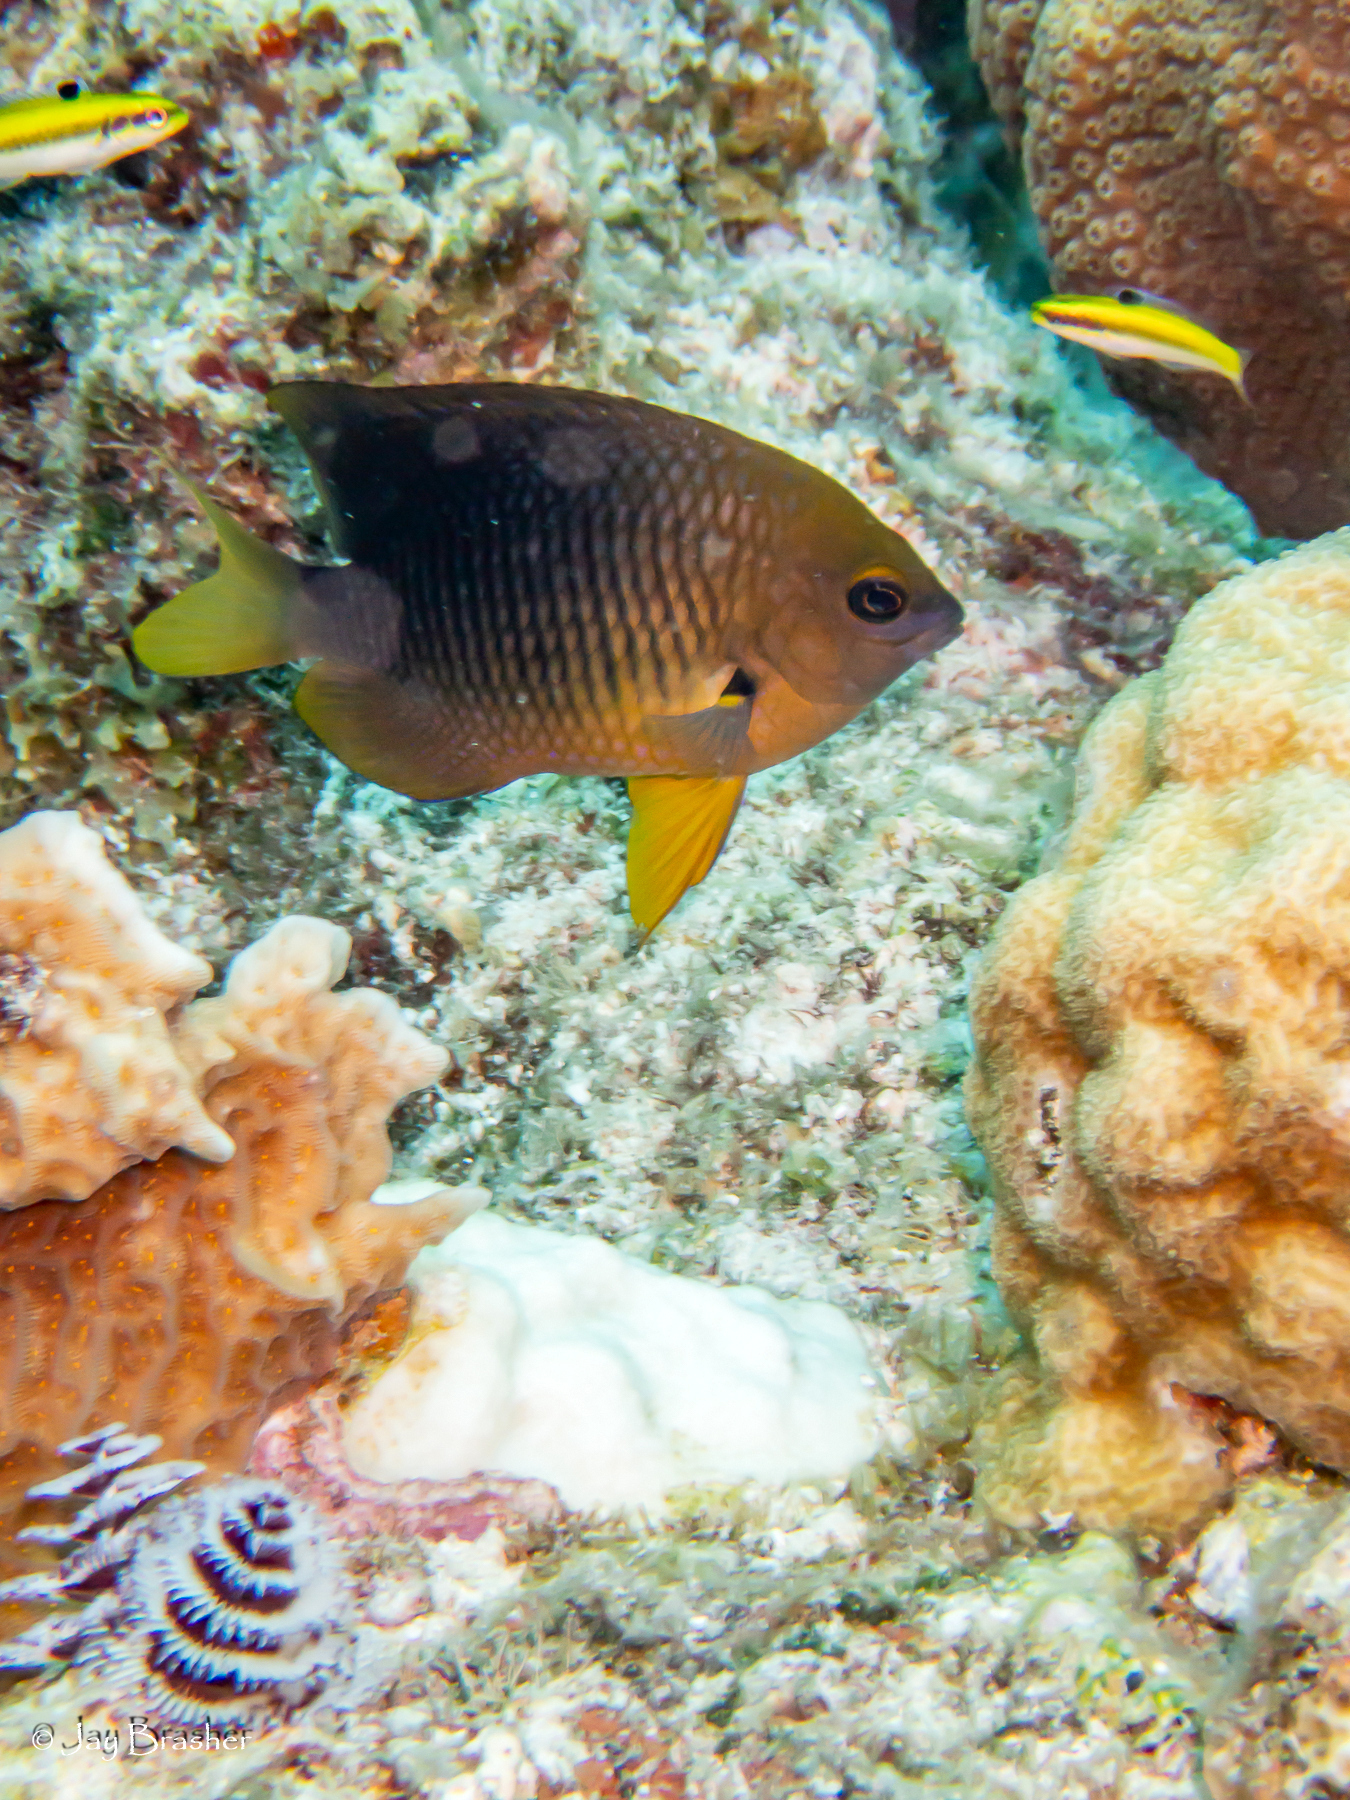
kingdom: Animalia
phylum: Chordata
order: Perciformes
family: Labridae
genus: Thalassoma
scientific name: Thalassoma bifasciatum
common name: Bluehead wrasse
